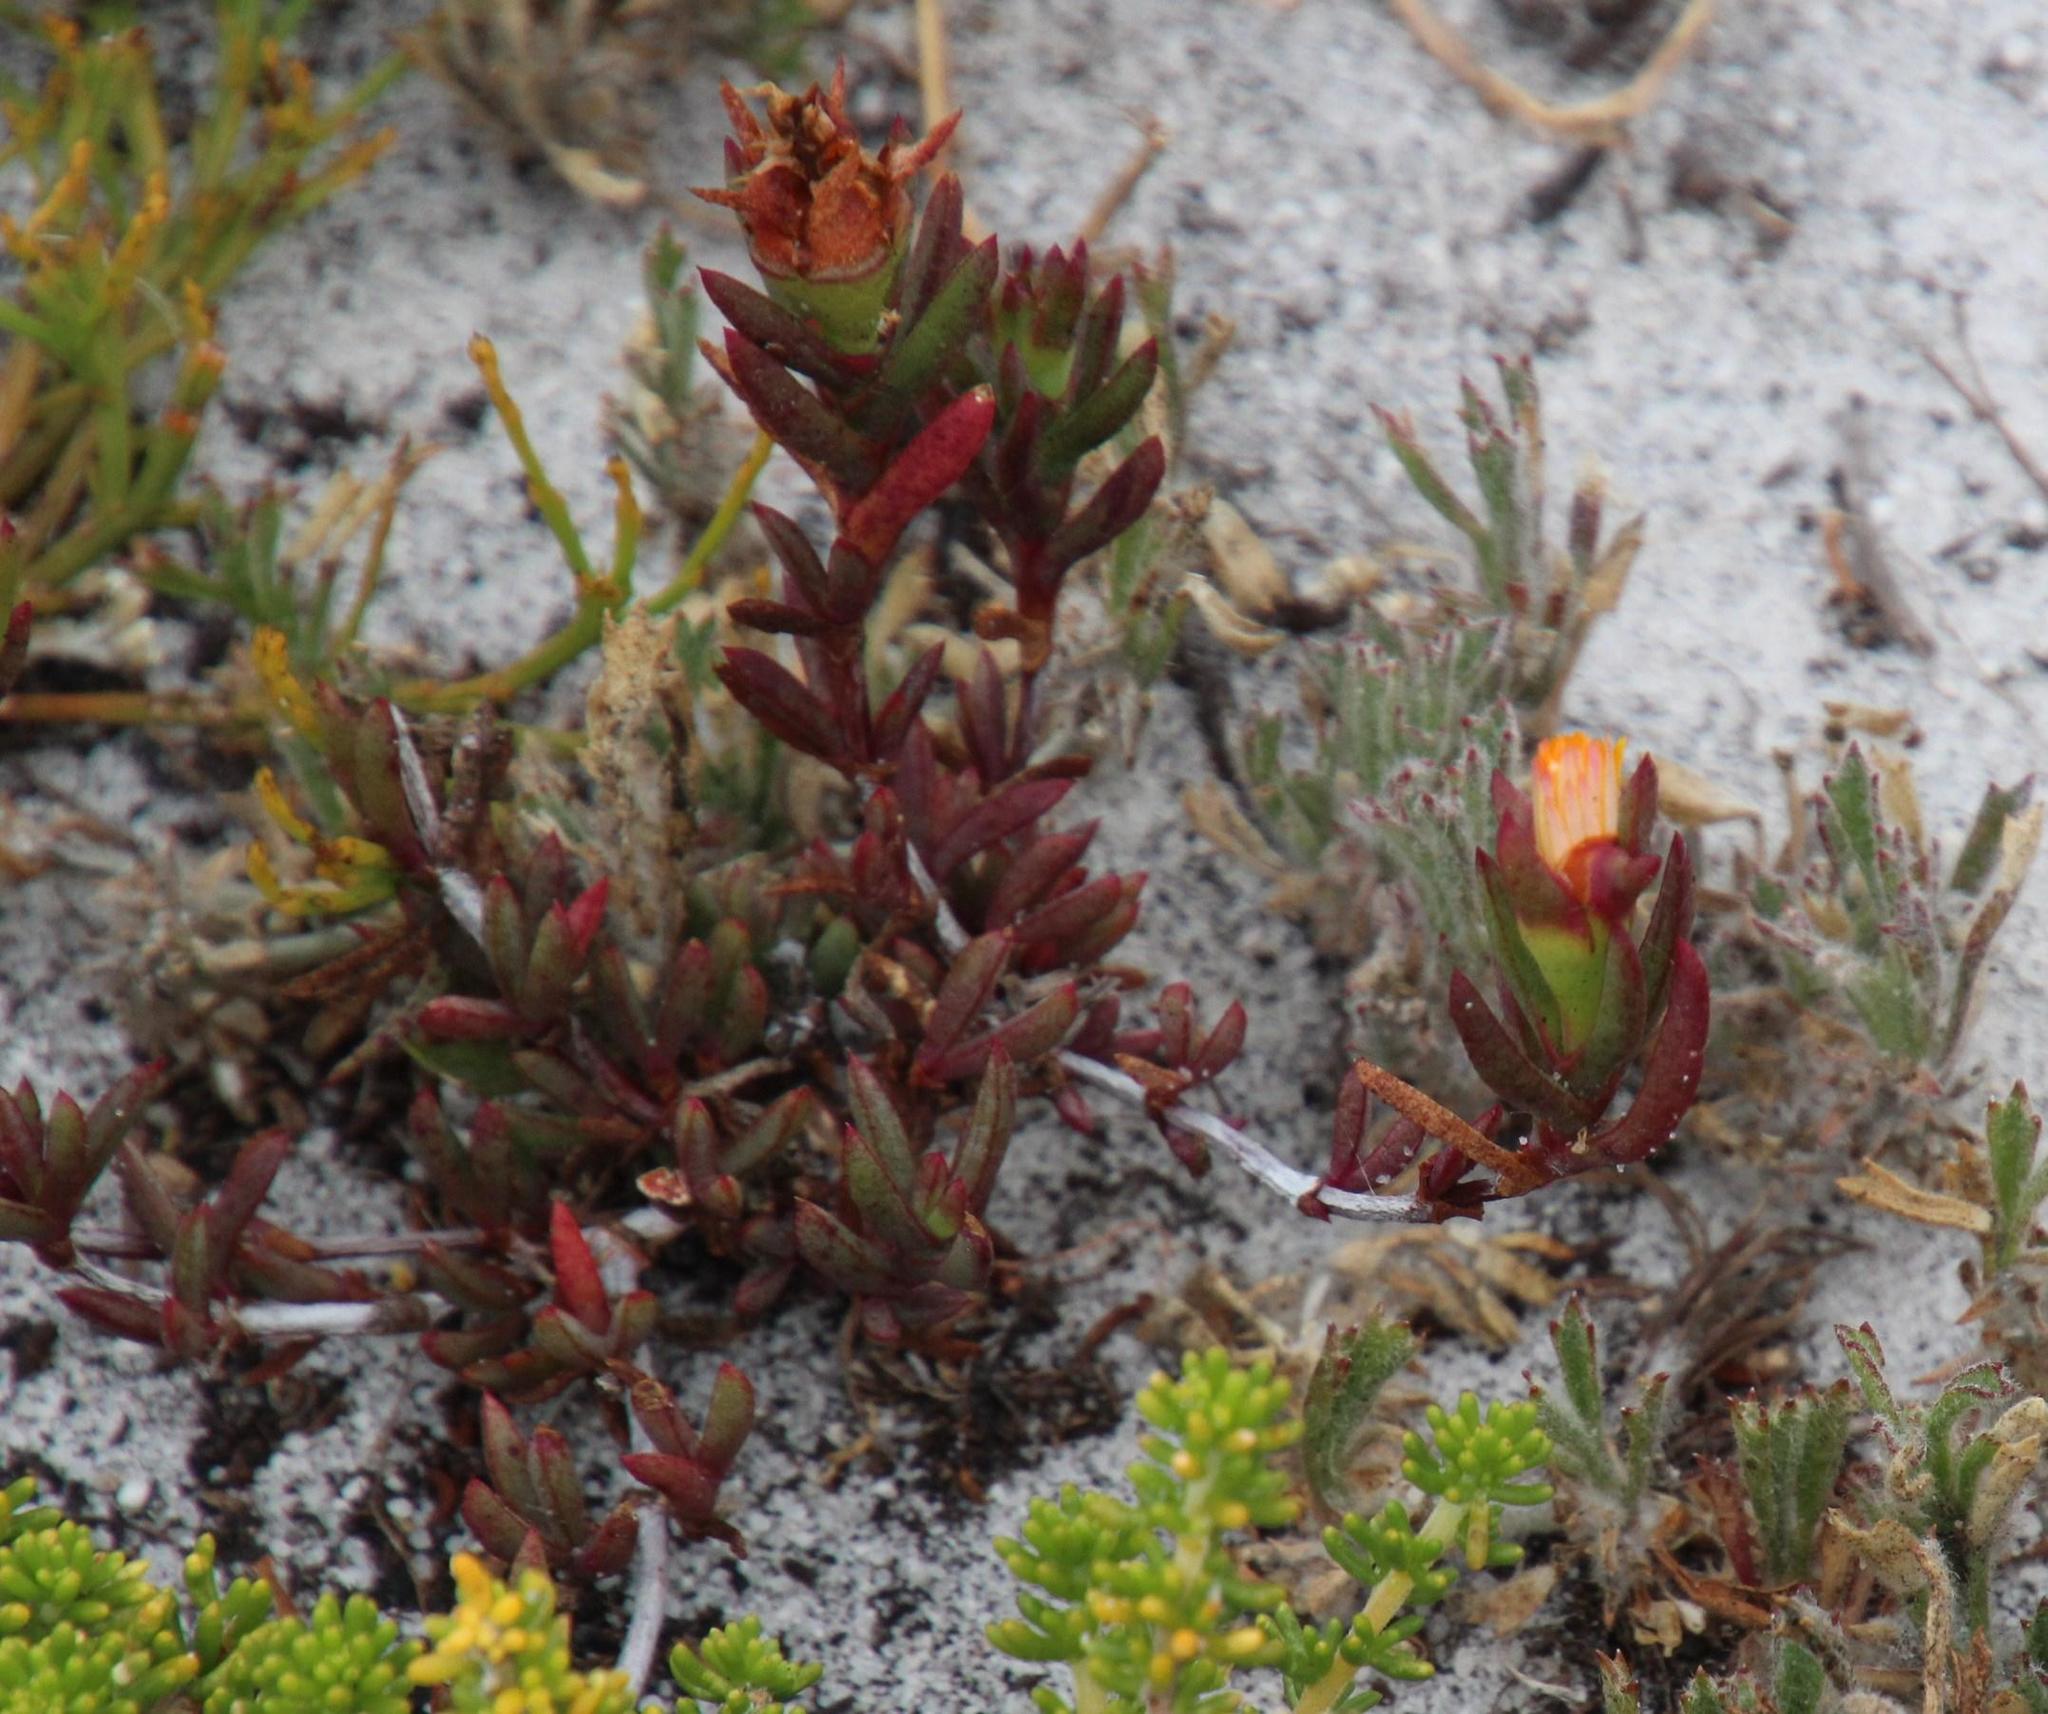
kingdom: Plantae
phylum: Tracheophyta
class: Magnoliopsida
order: Caryophyllales
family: Aizoaceae
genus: Lampranthus
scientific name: Lampranthus bicolor
